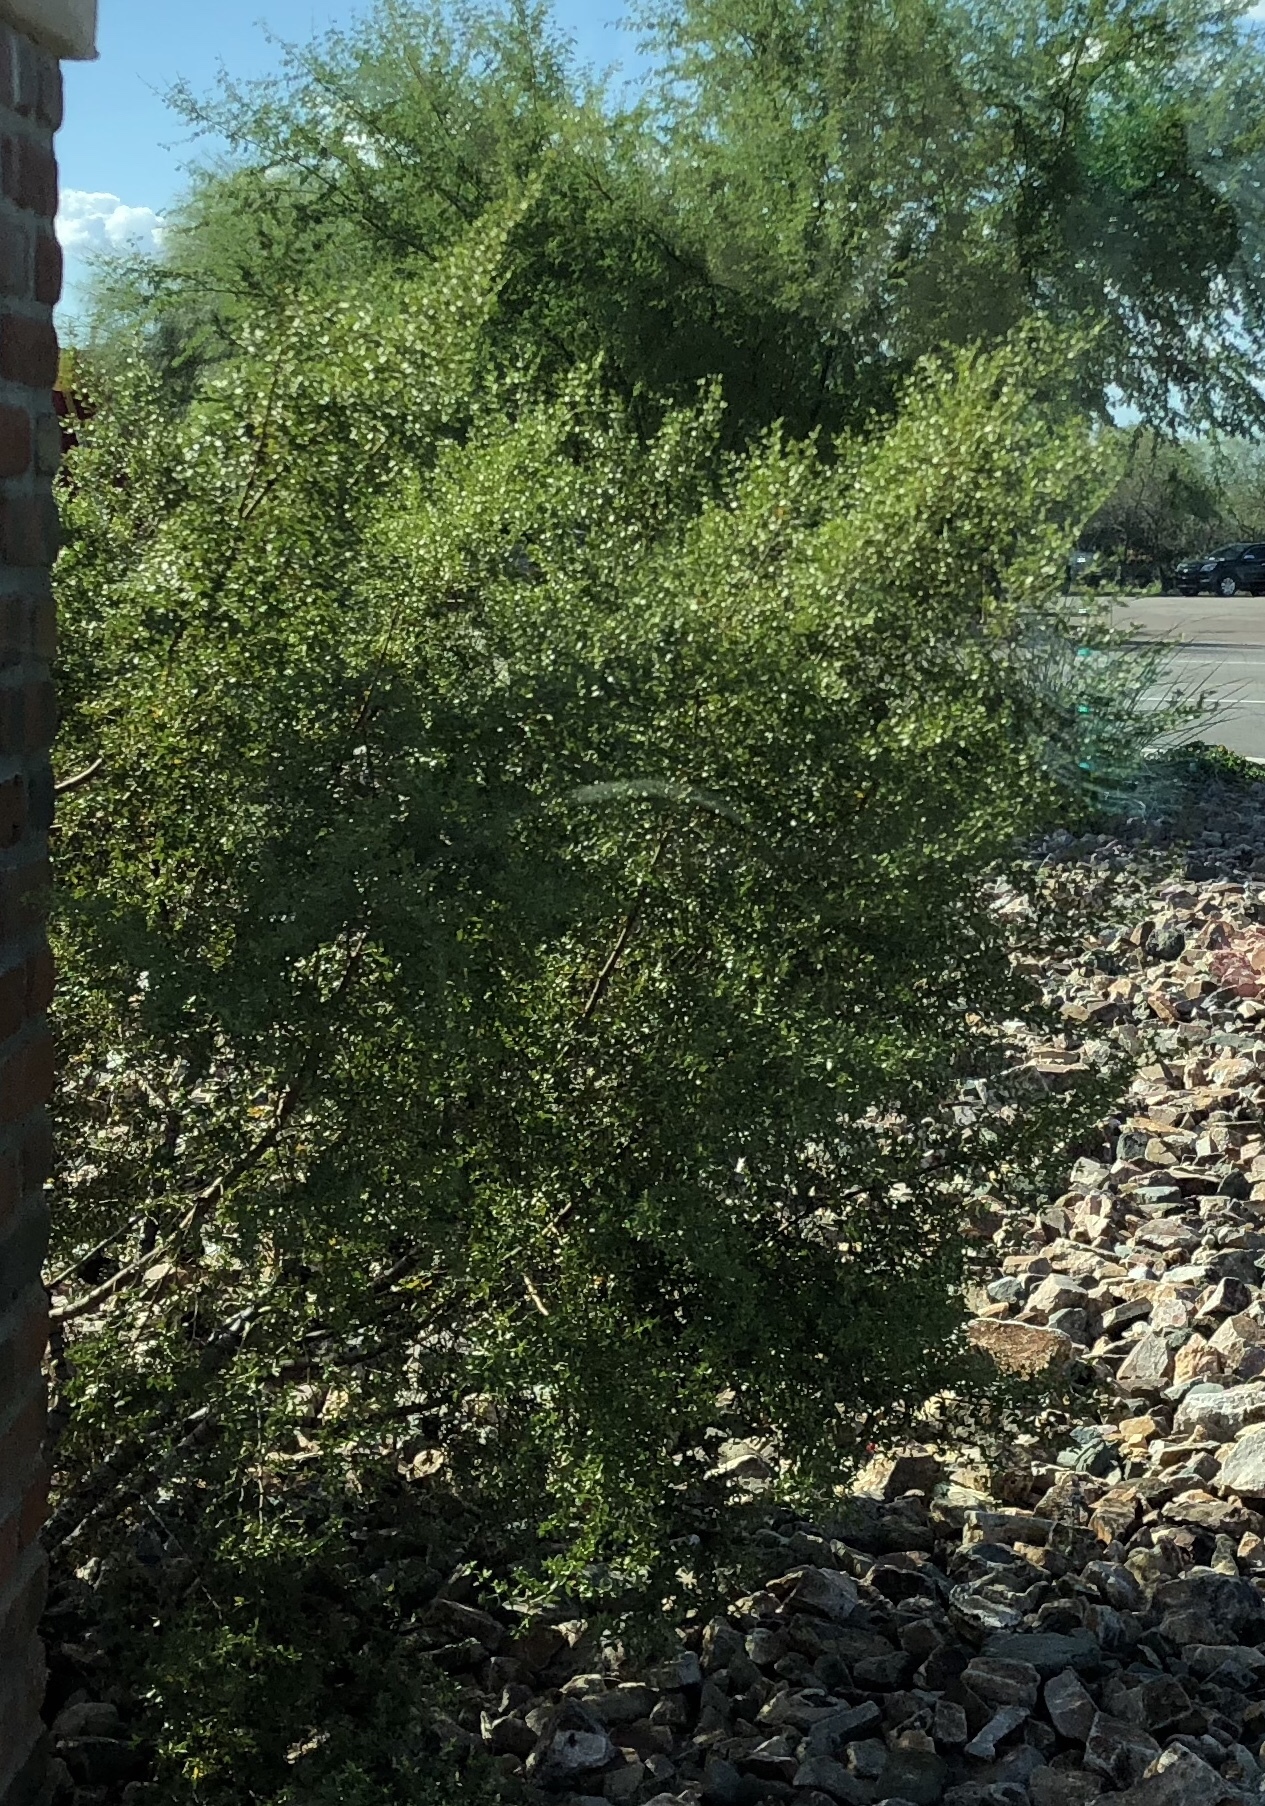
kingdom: Plantae
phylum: Tracheophyta
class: Magnoliopsida
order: Zygophyllales
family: Zygophyllaceae
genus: Larrea
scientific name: Larrea tridentata
